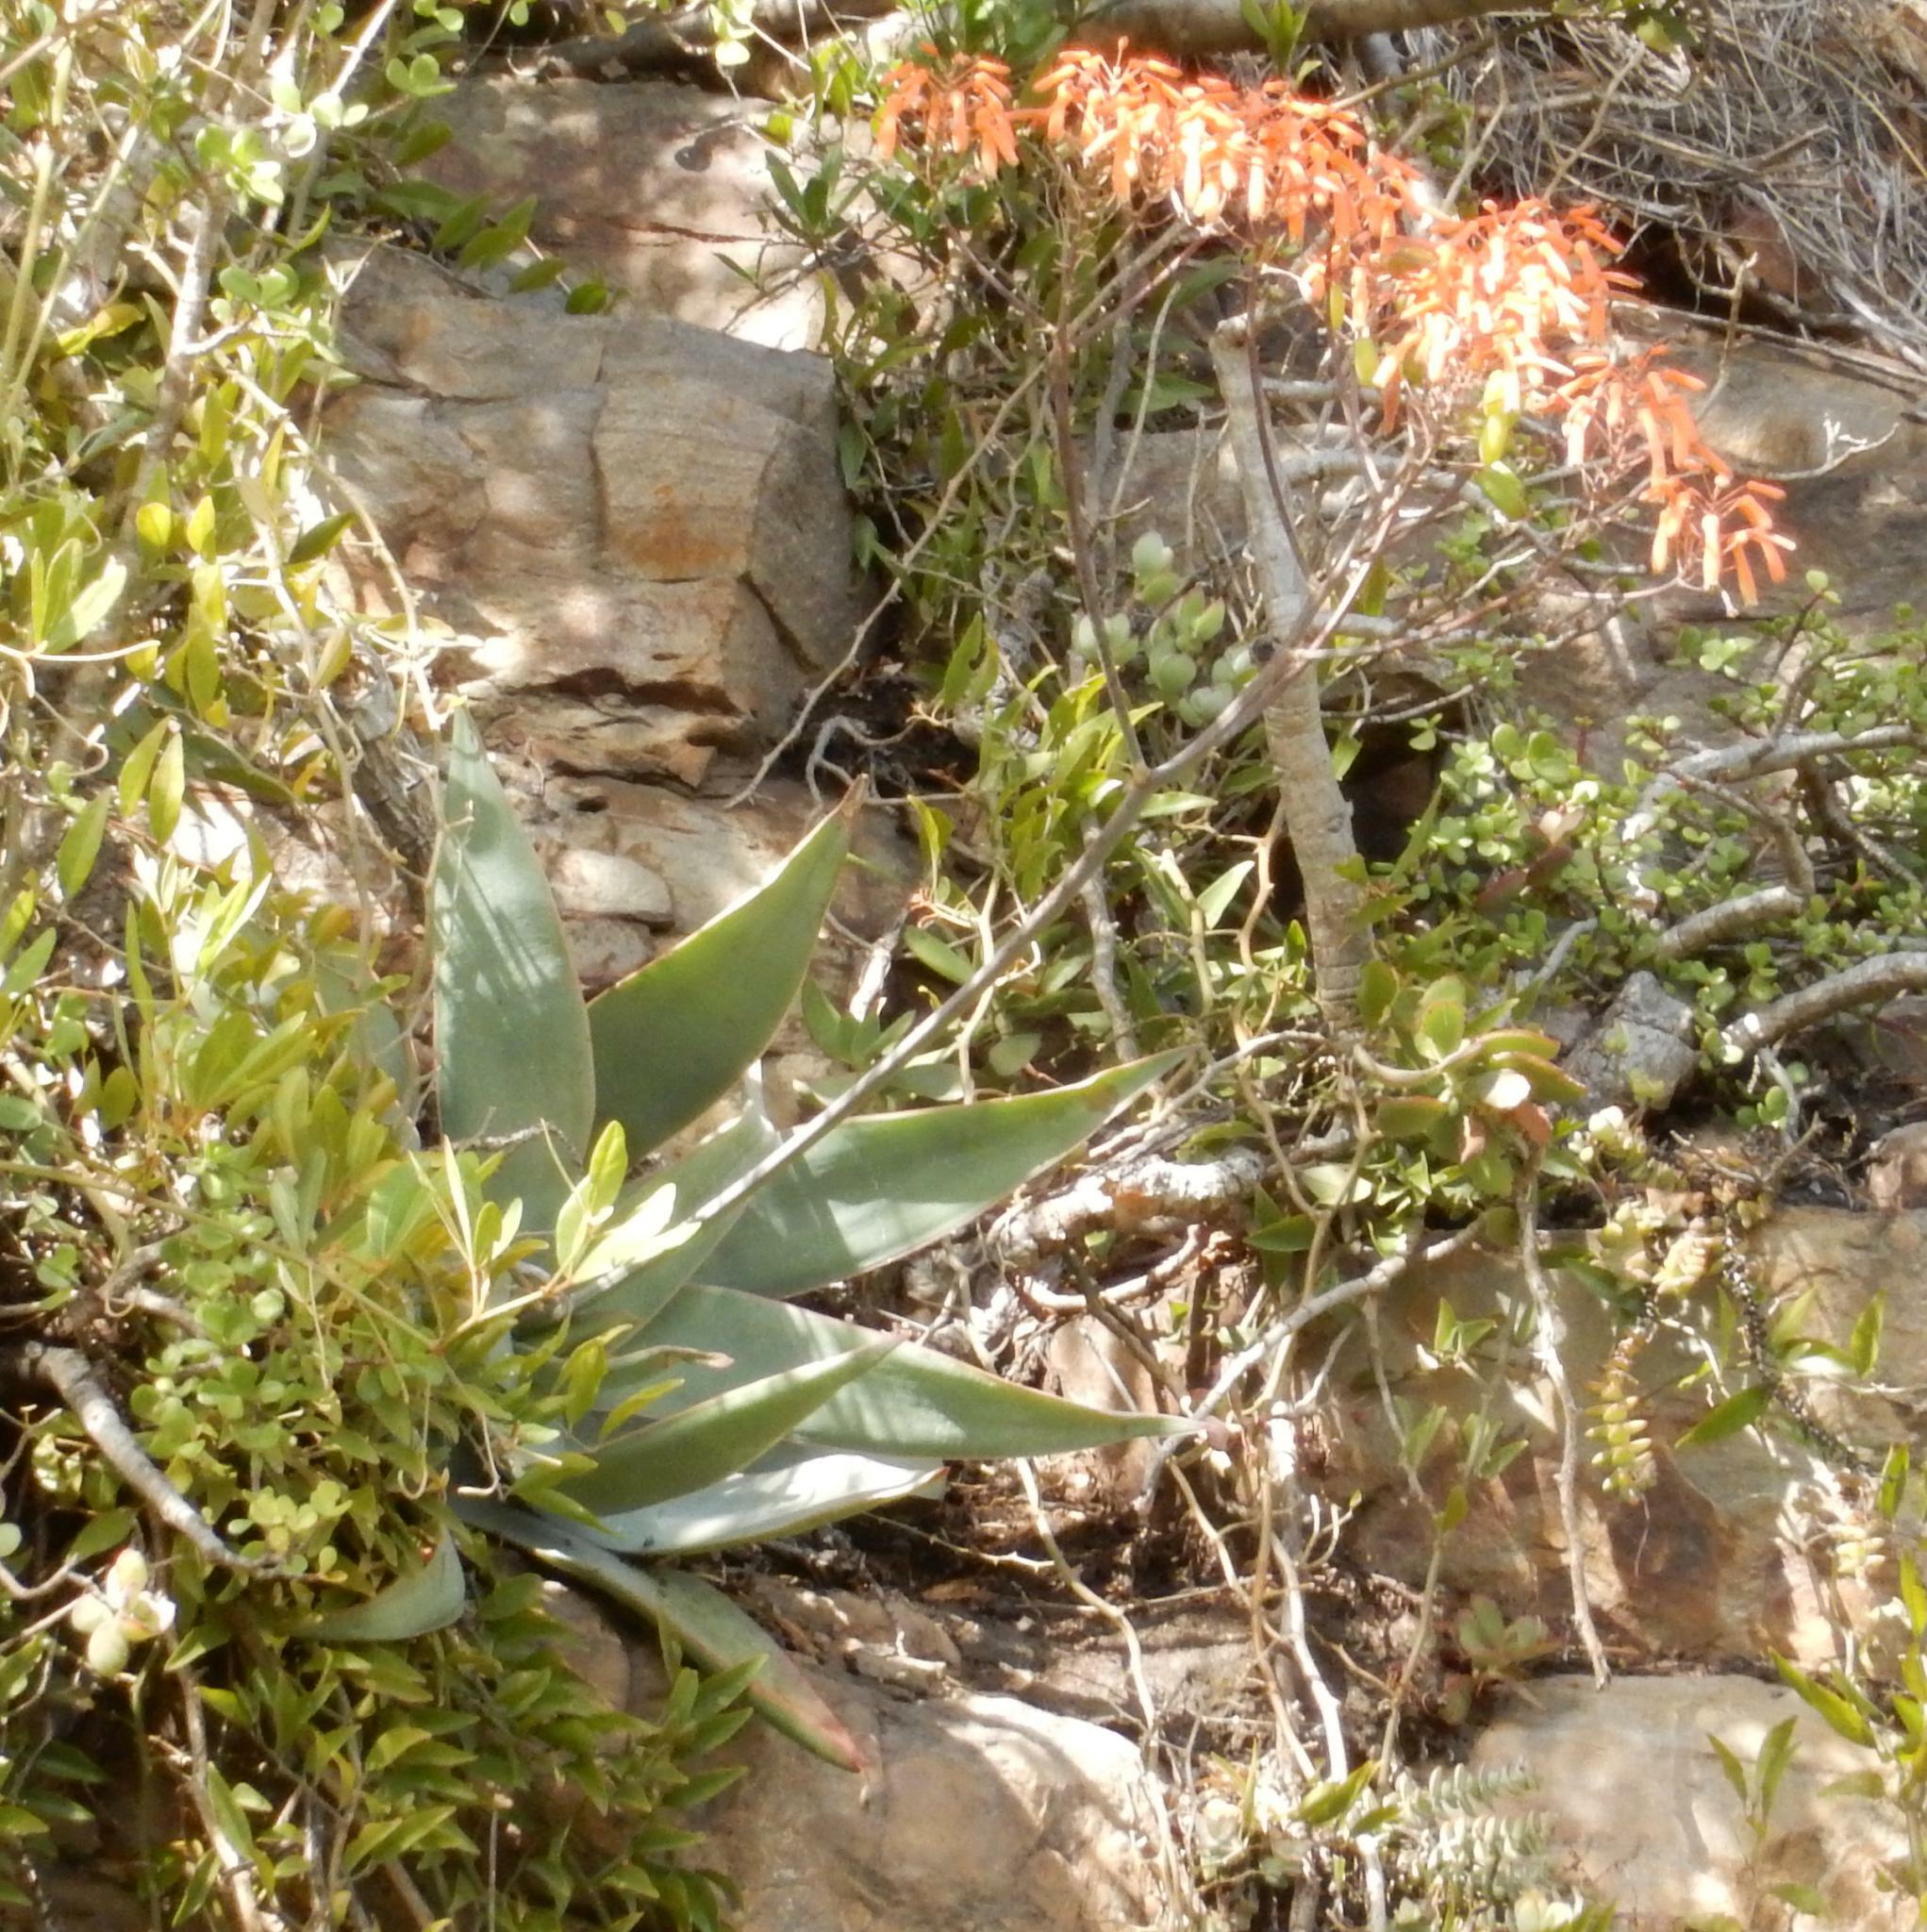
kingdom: Plantae
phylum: Tracheophyta
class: Liliopsida
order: Asparagales
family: Asphodelaceae
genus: Aloe
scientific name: Aloe striata
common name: Coral aloe
